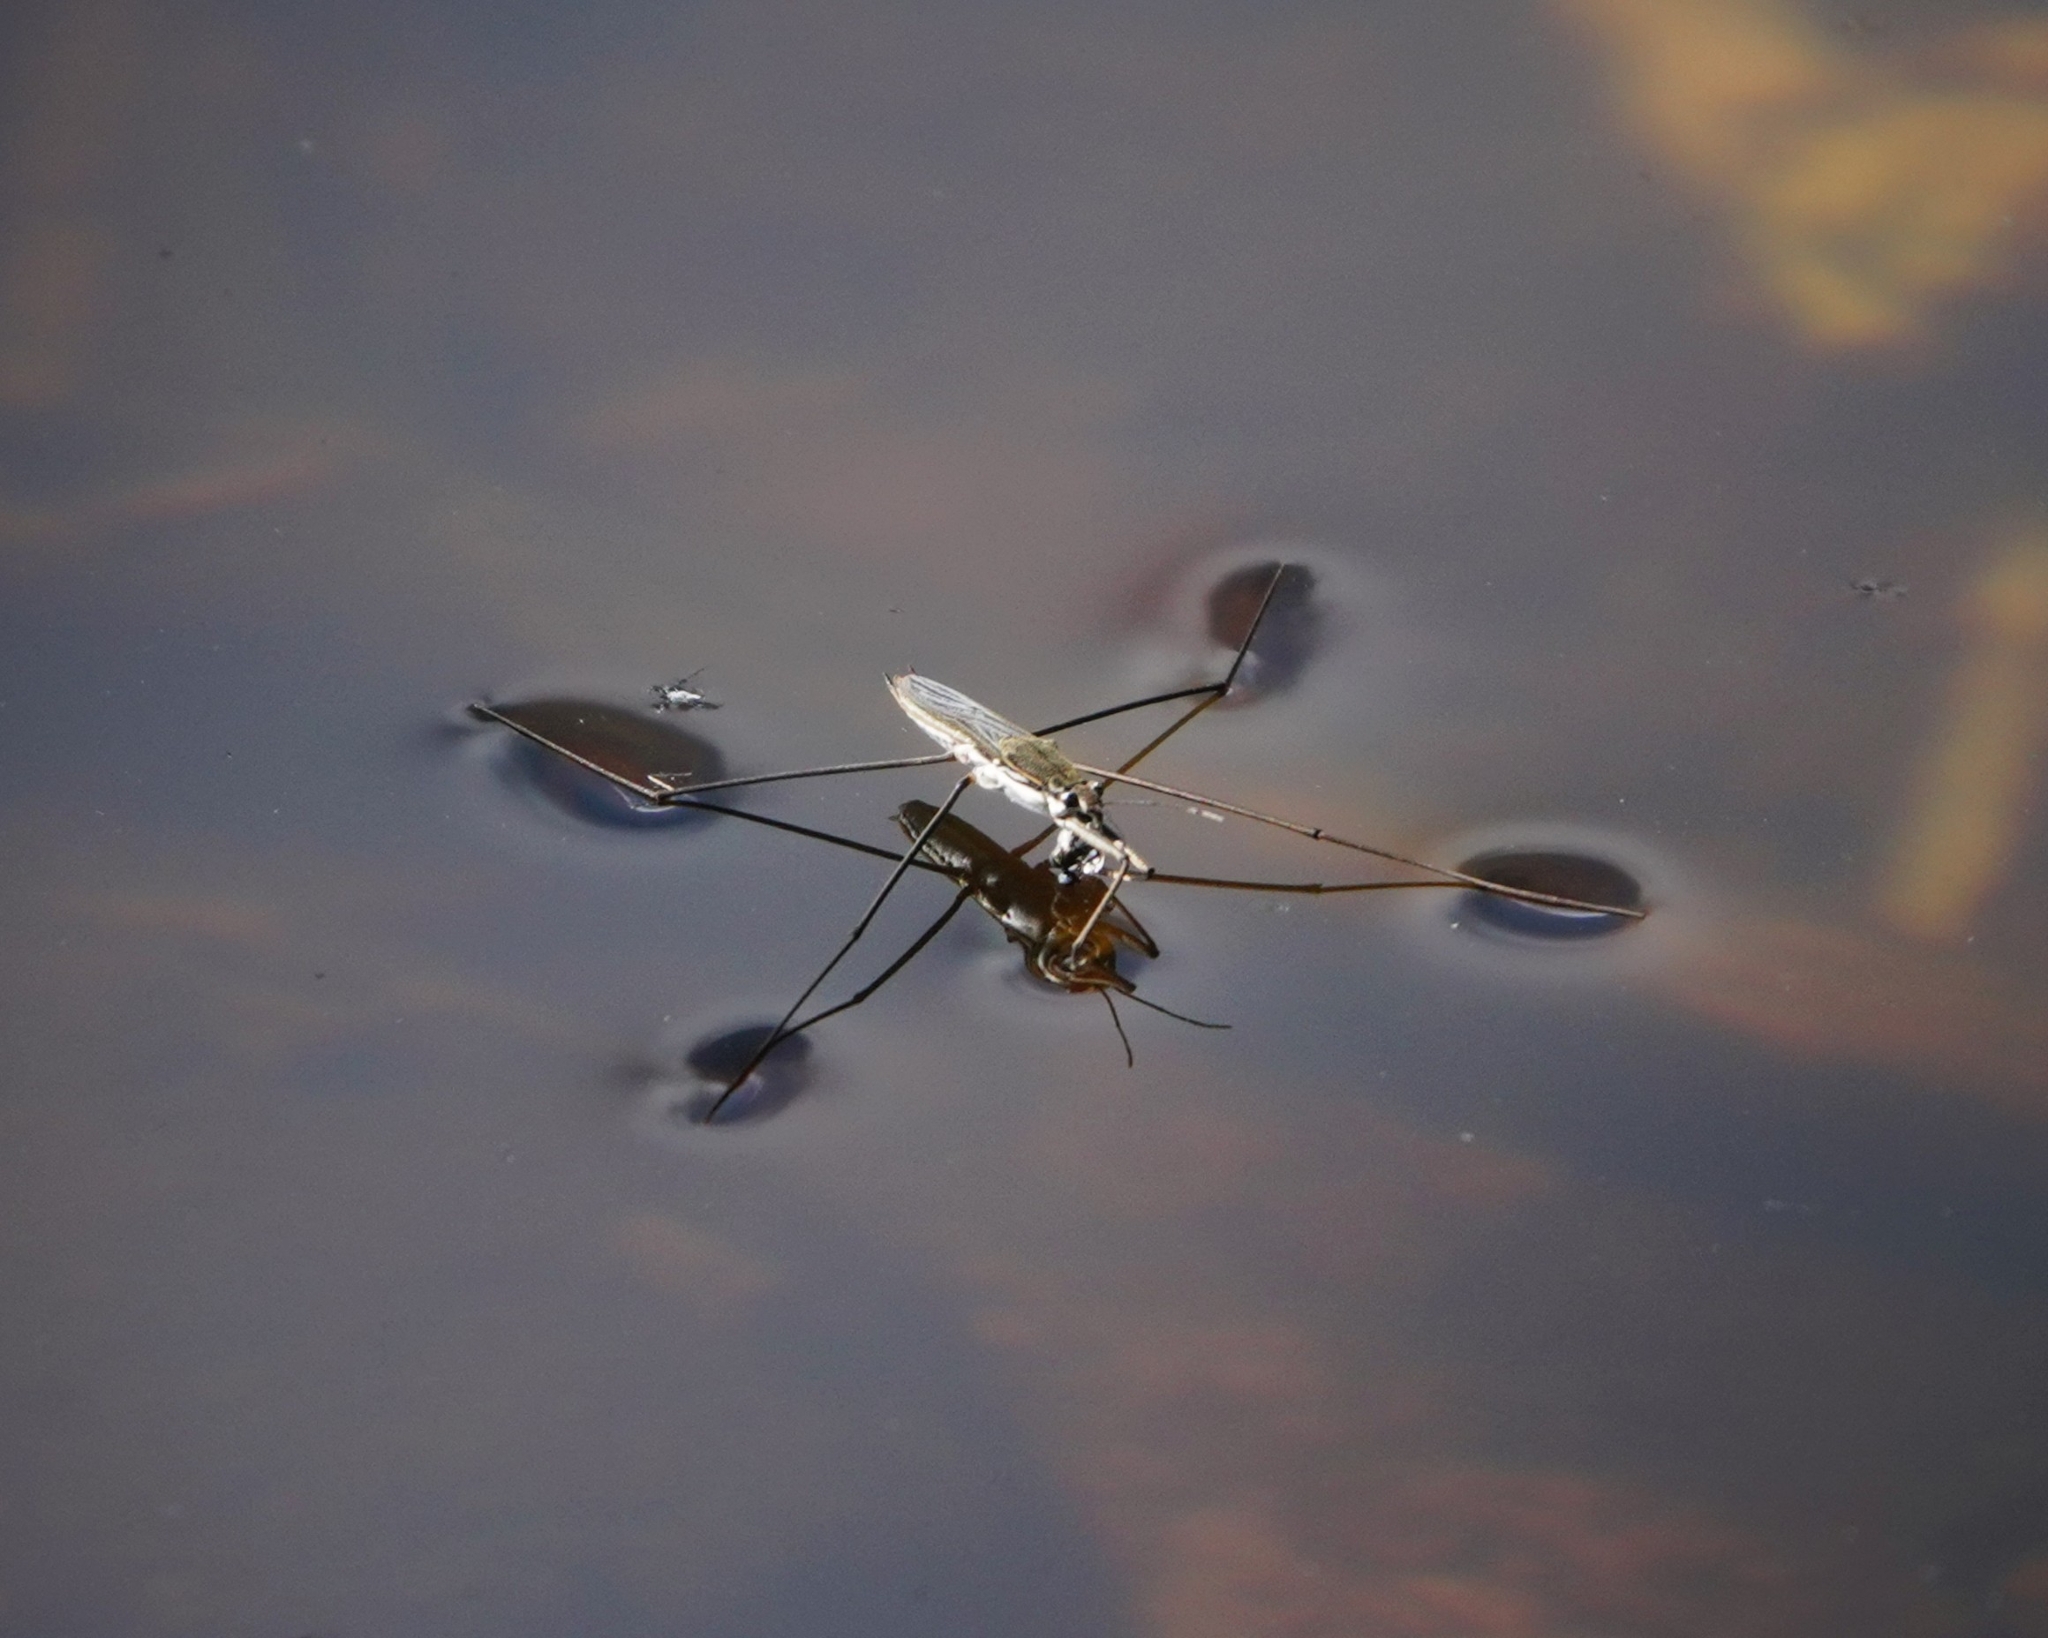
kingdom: Animalia
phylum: Arthropoda
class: Insecta
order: Hemiptera
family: Gerridae
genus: Aquarius
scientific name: Aquarius paludum
